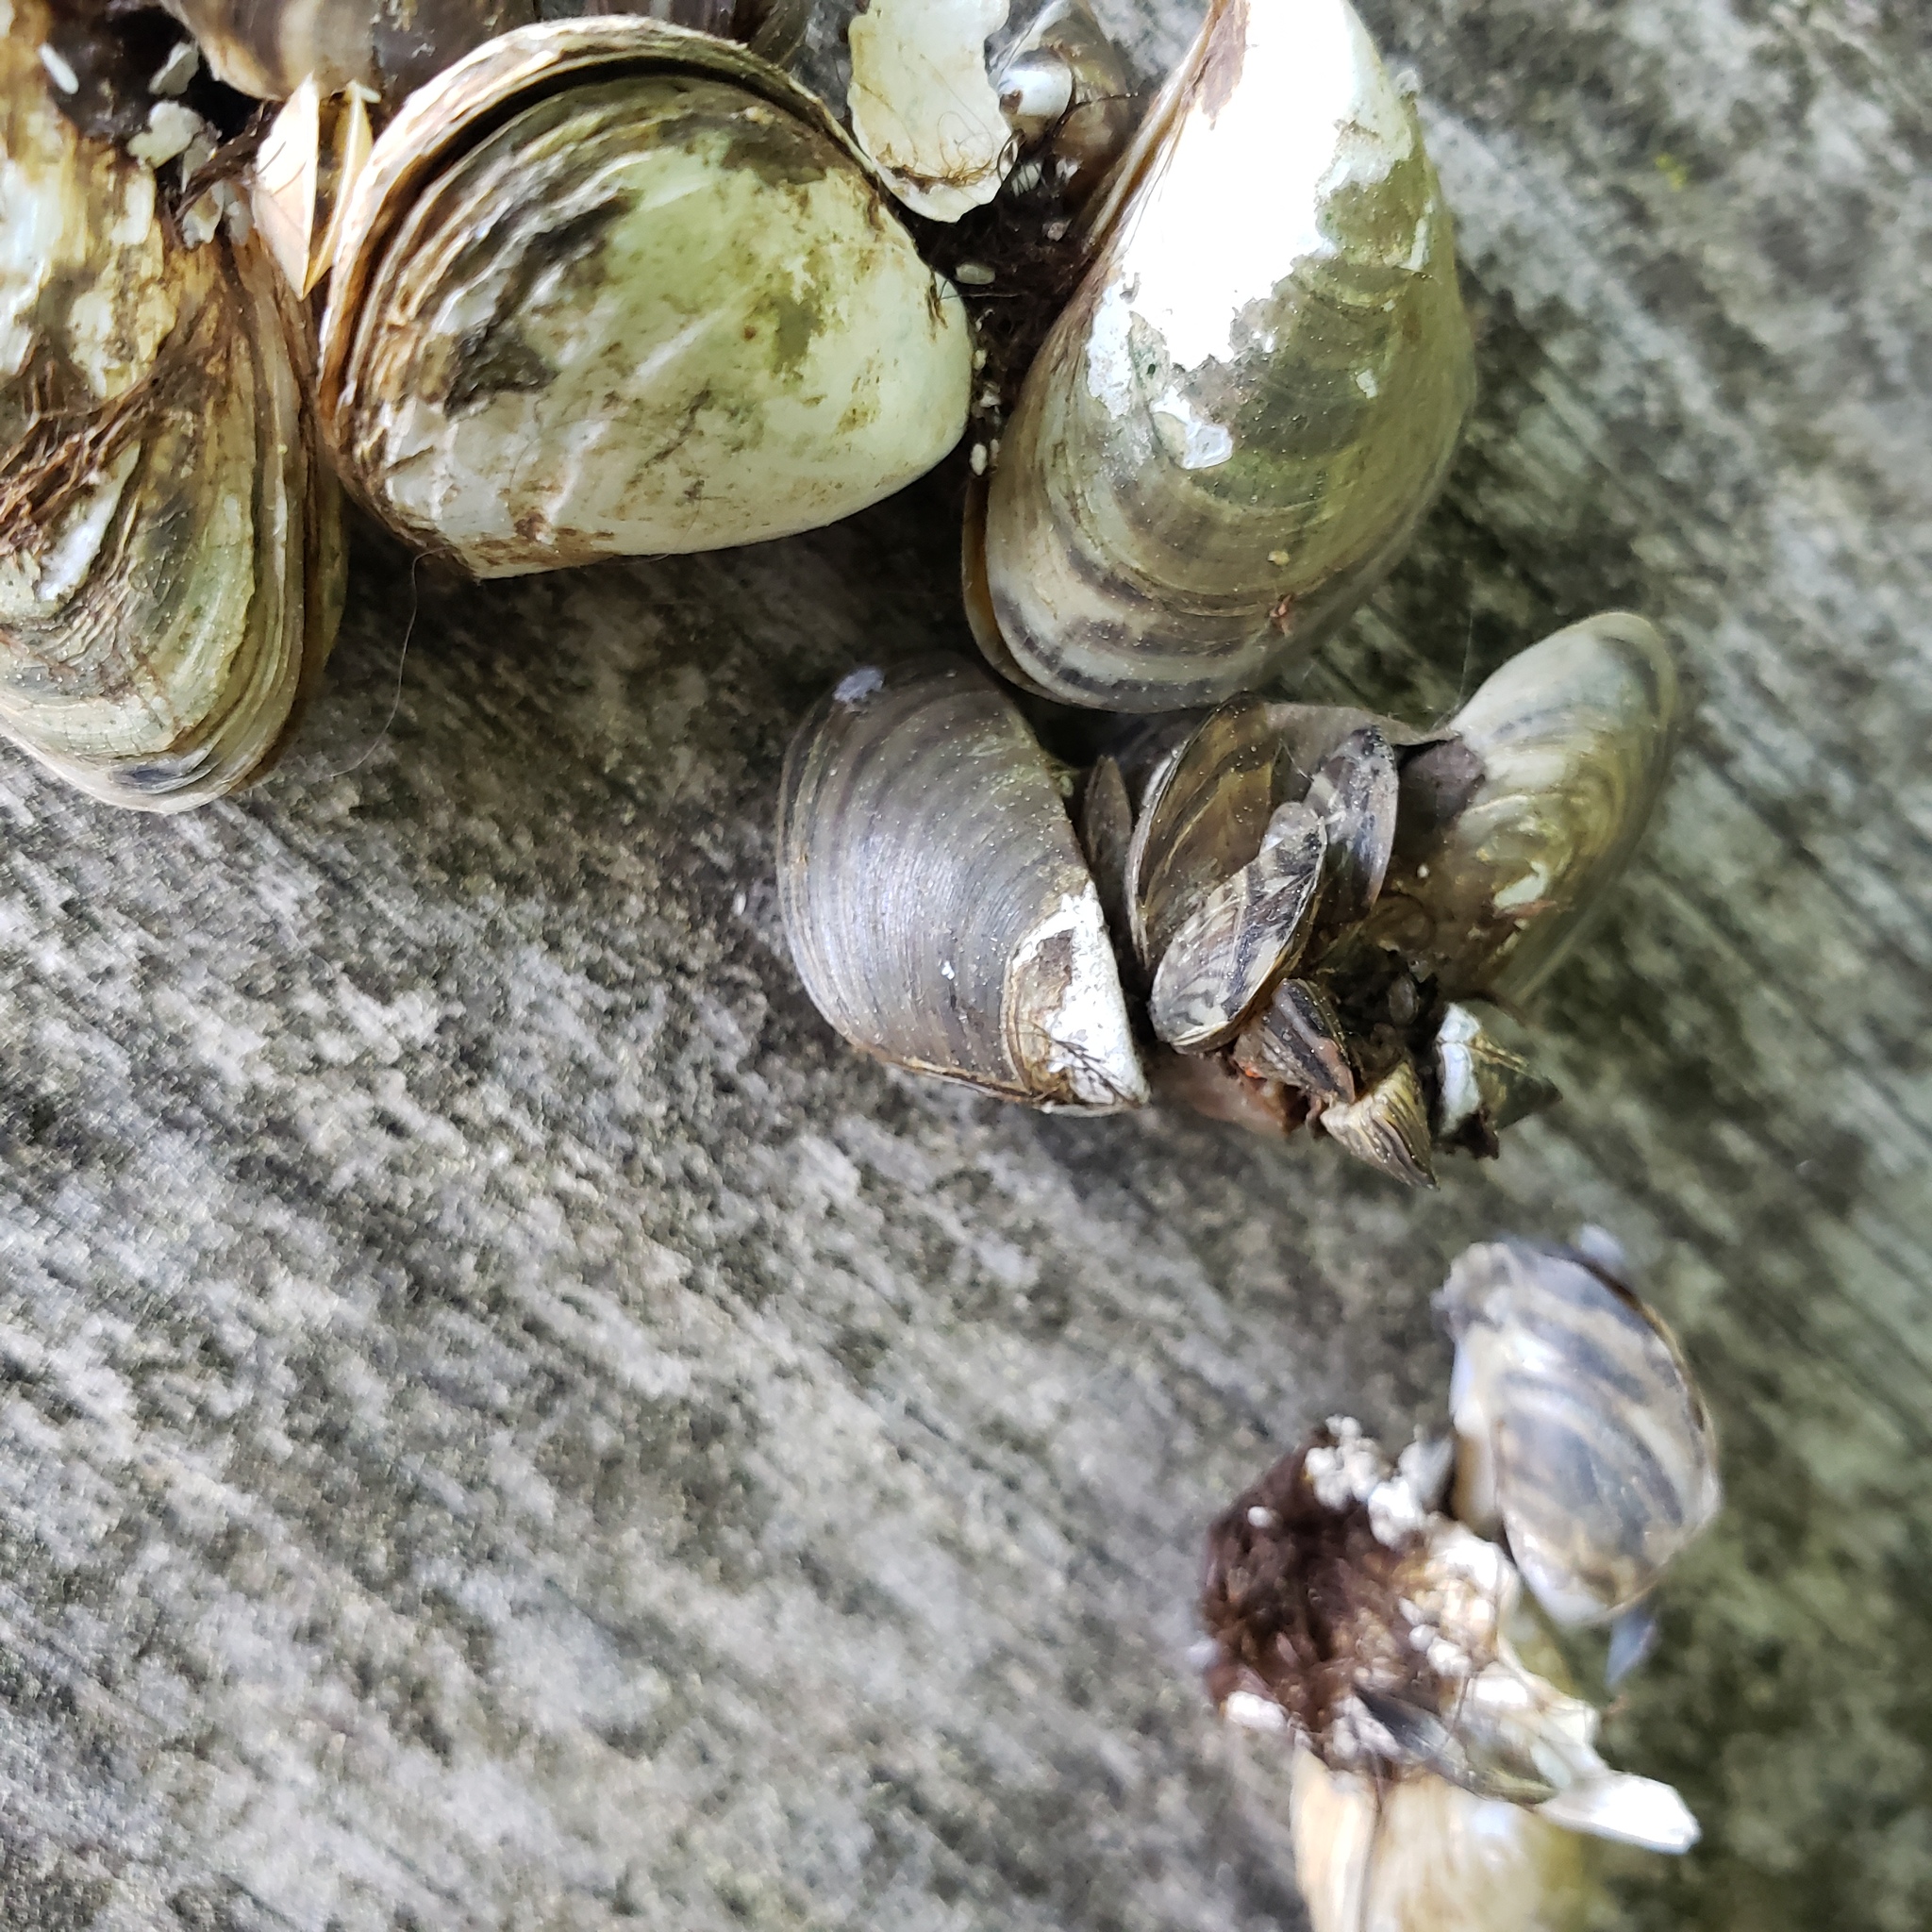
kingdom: Animalia
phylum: Mollusca
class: Bivalvia
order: Myida
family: Dreissenidae
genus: Dreissena
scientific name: Dreissena polymorpha
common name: Zebra mussel
